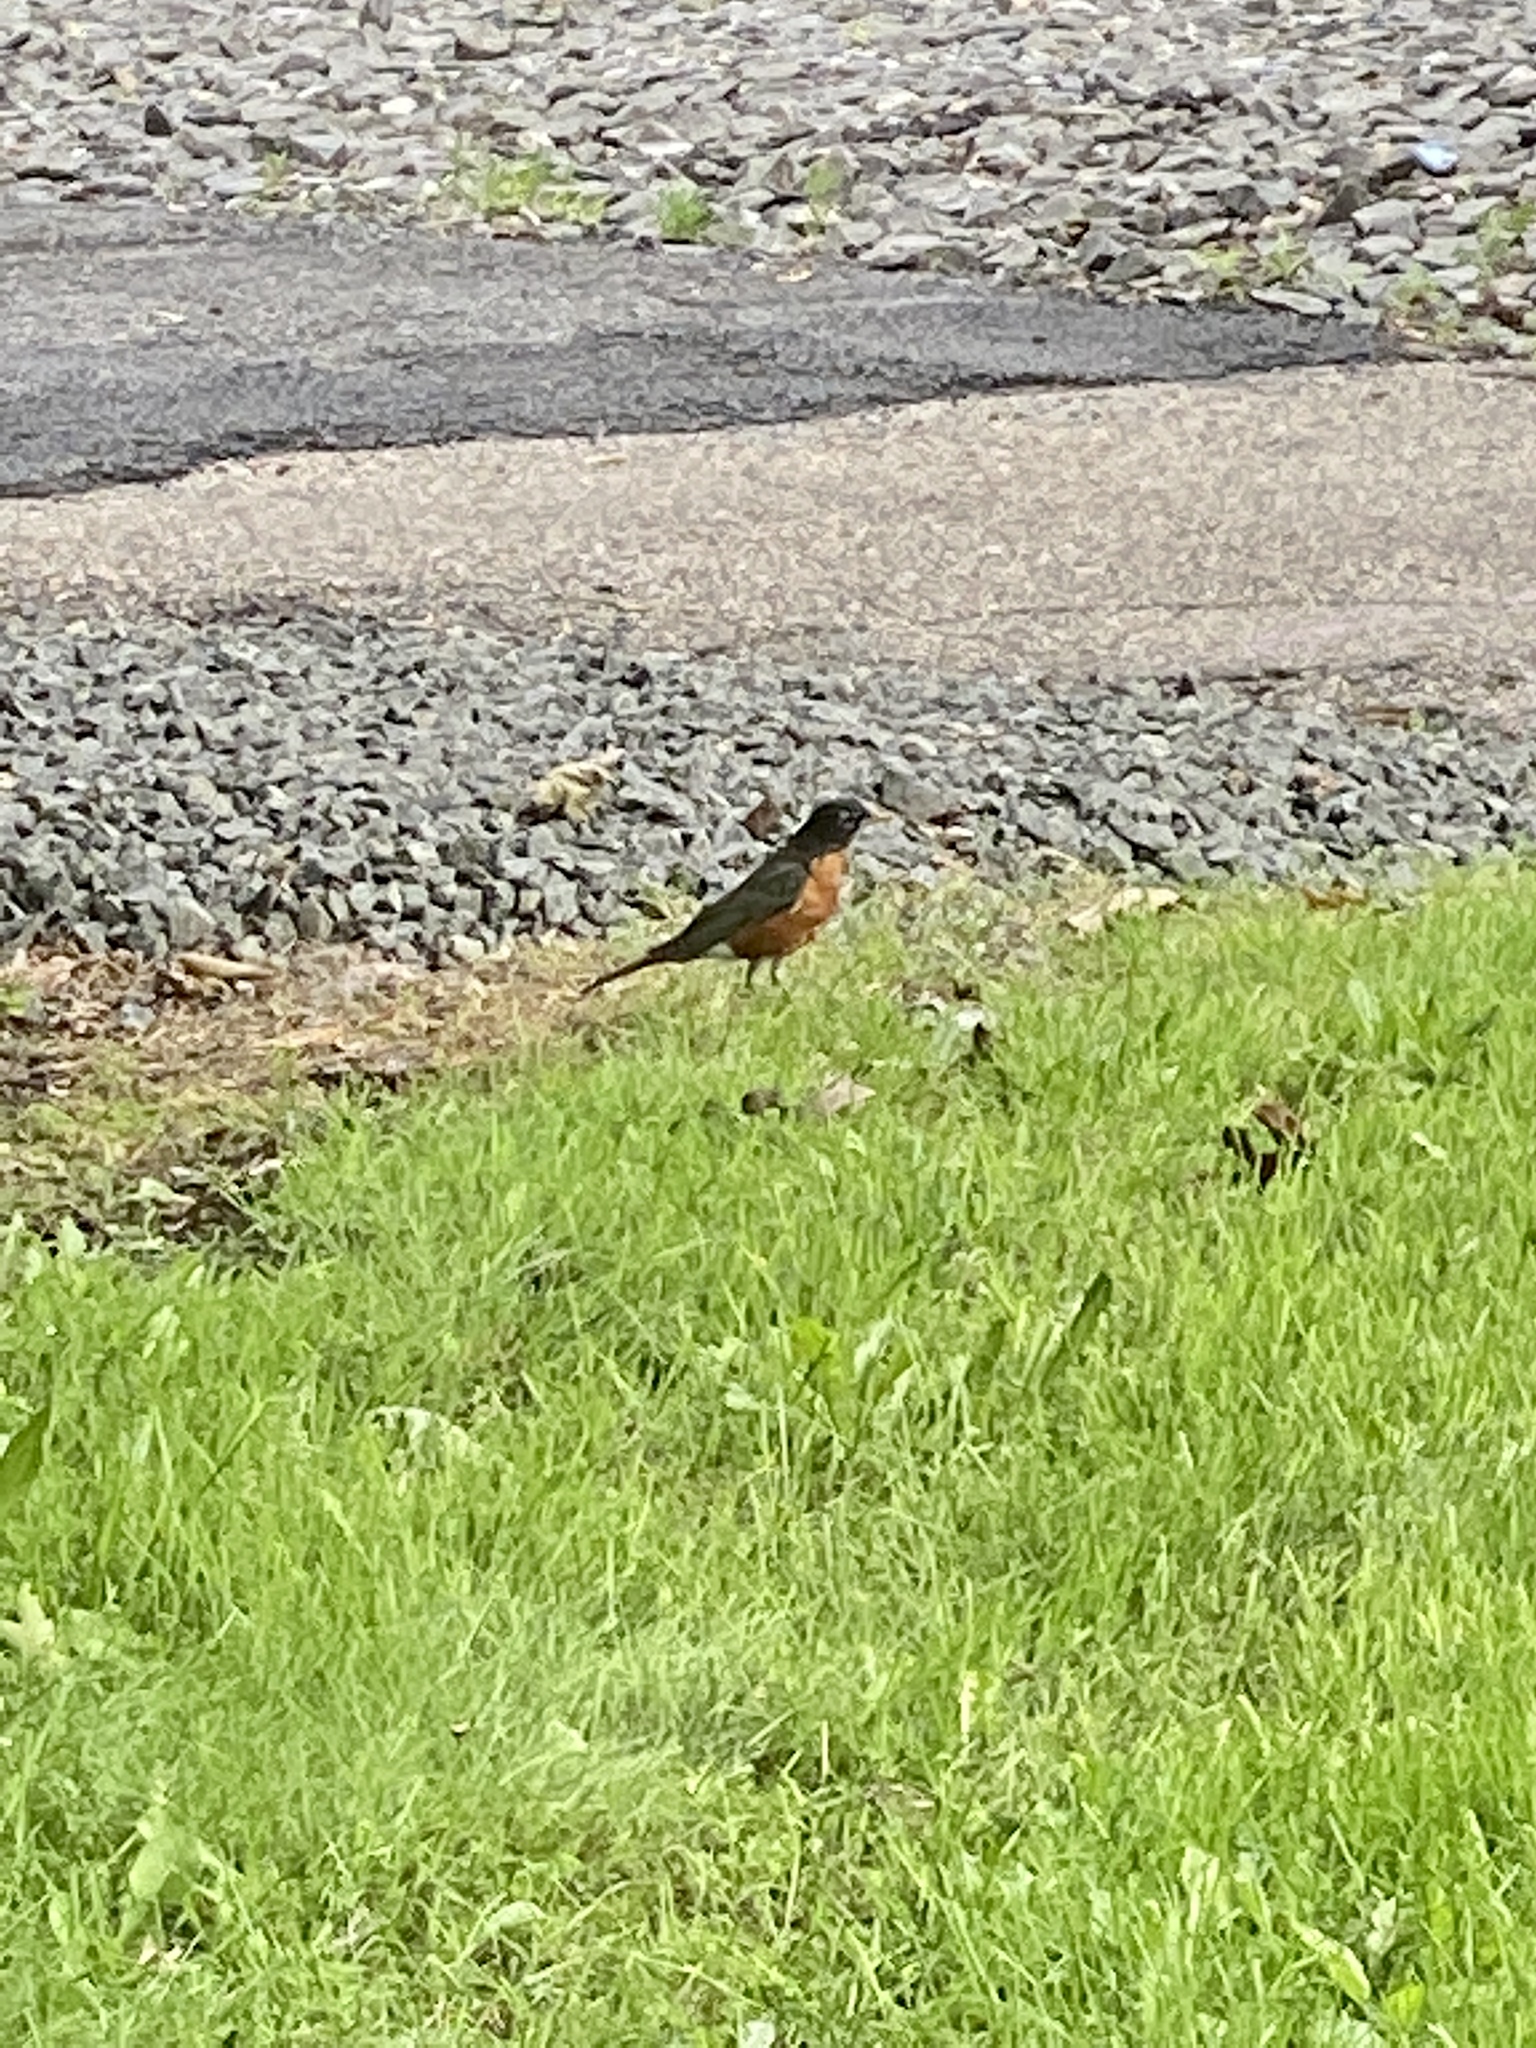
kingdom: Animalia
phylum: Chordata
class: Aves
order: Passeriformes
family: Turdidae
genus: Turdus
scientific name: Turdus migratorius
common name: American robin
